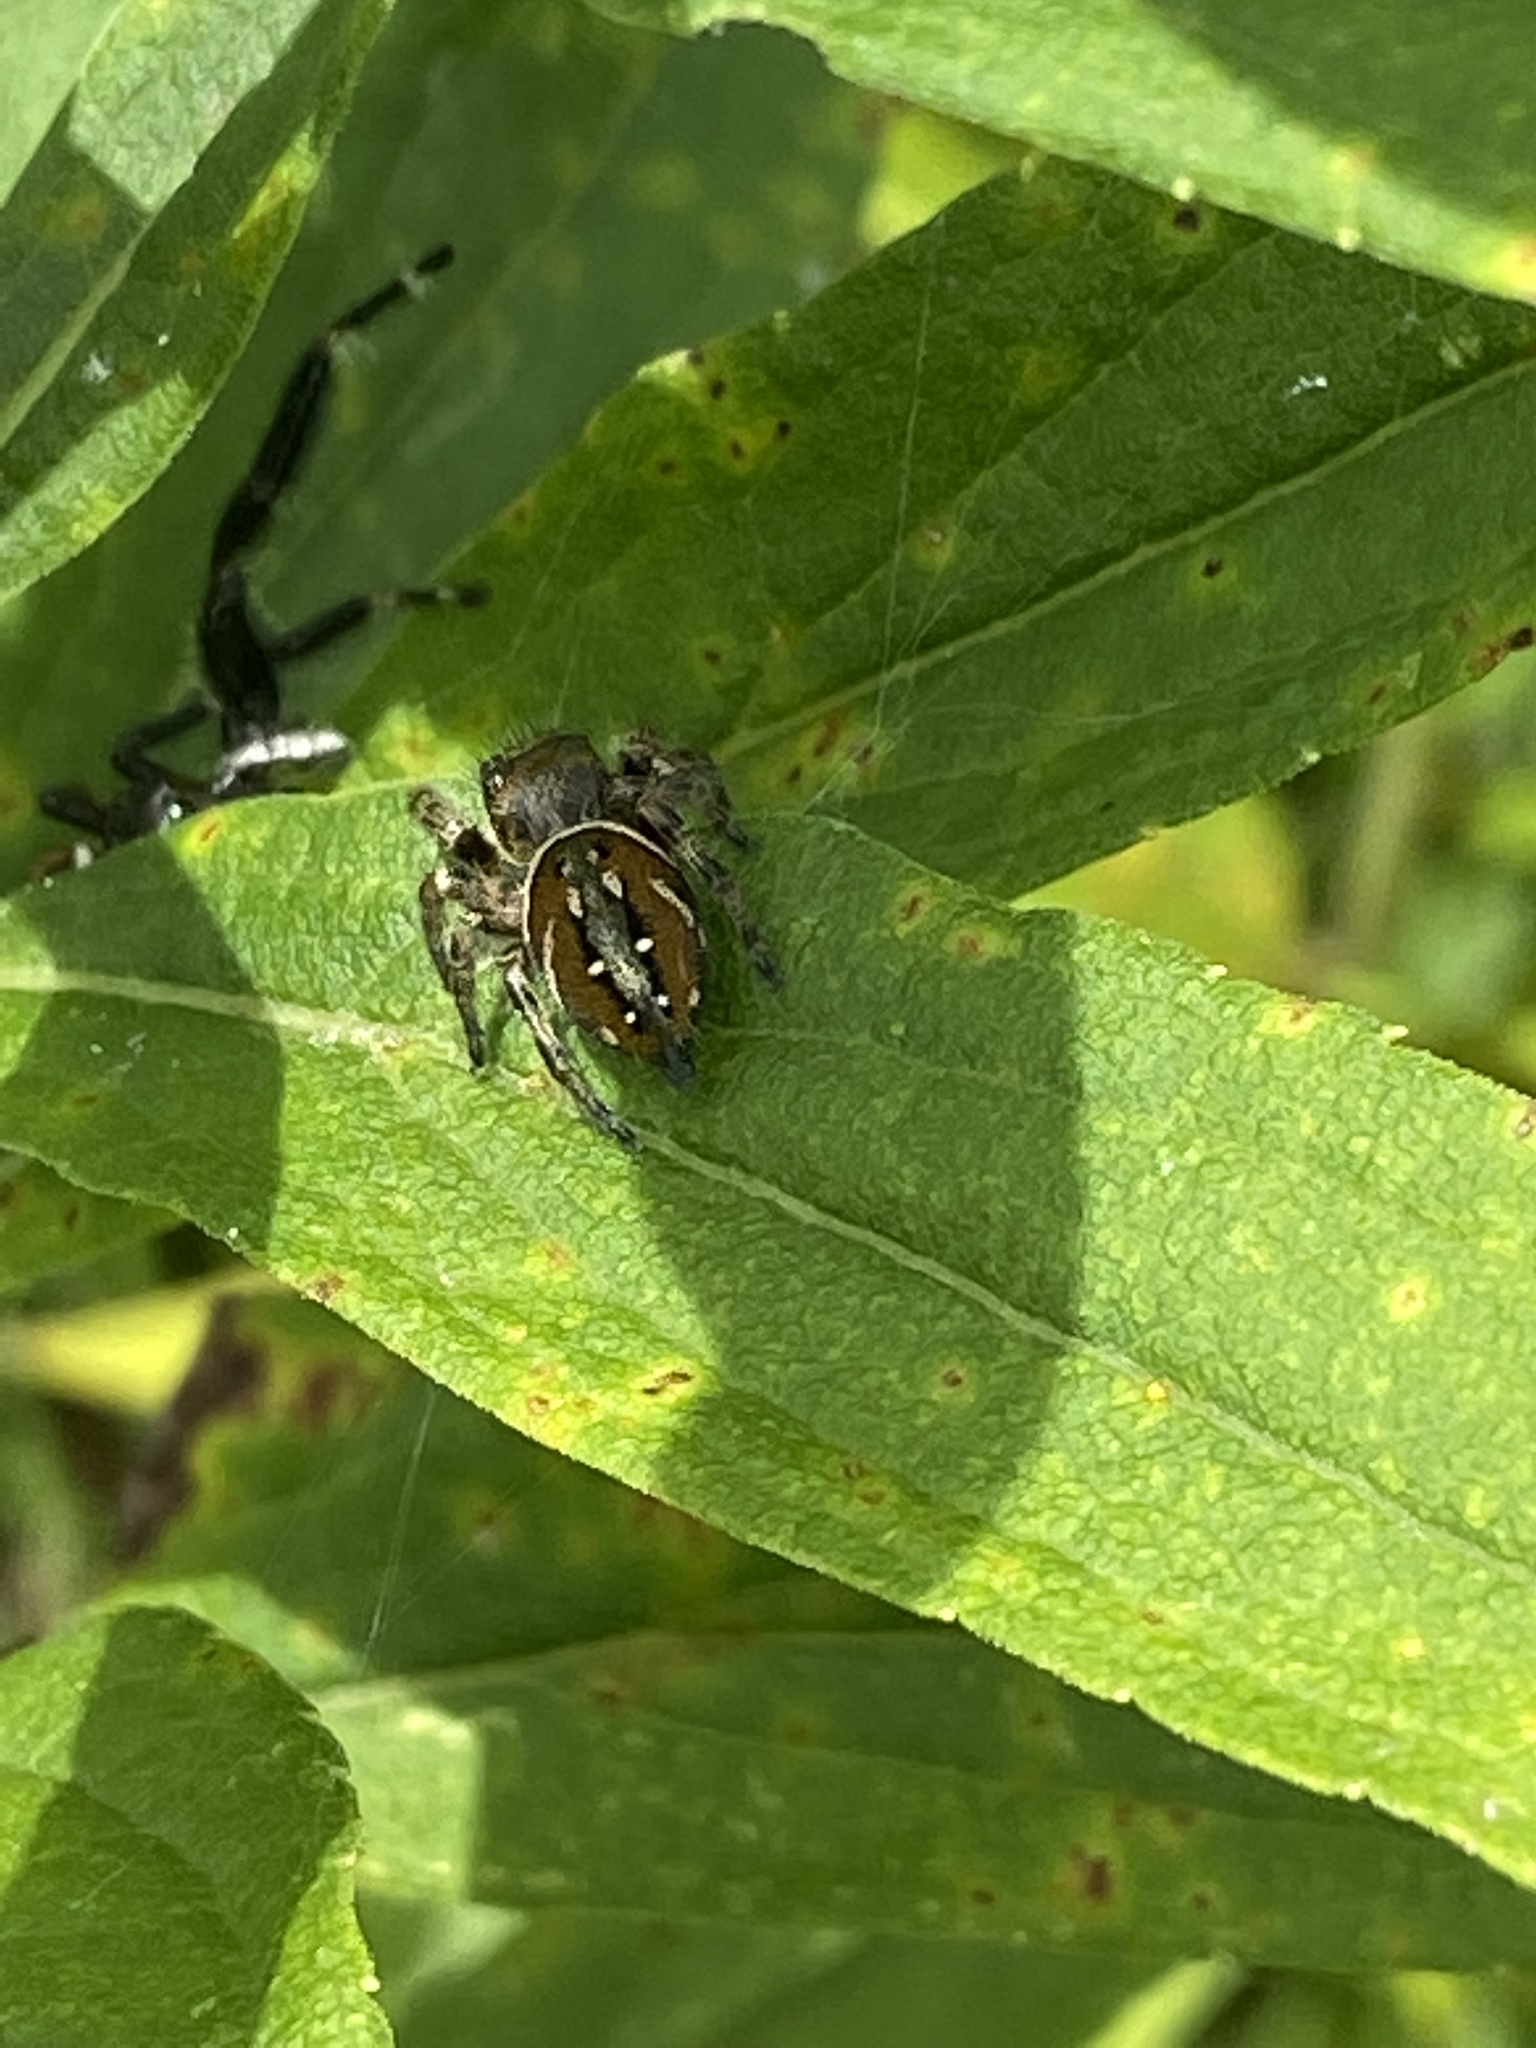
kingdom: Animalia
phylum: Arthropoda
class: Arachnida
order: Araneae
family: Salticidae
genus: Phidippus
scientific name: Phidippus clarus
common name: Brilliant jumping spider
